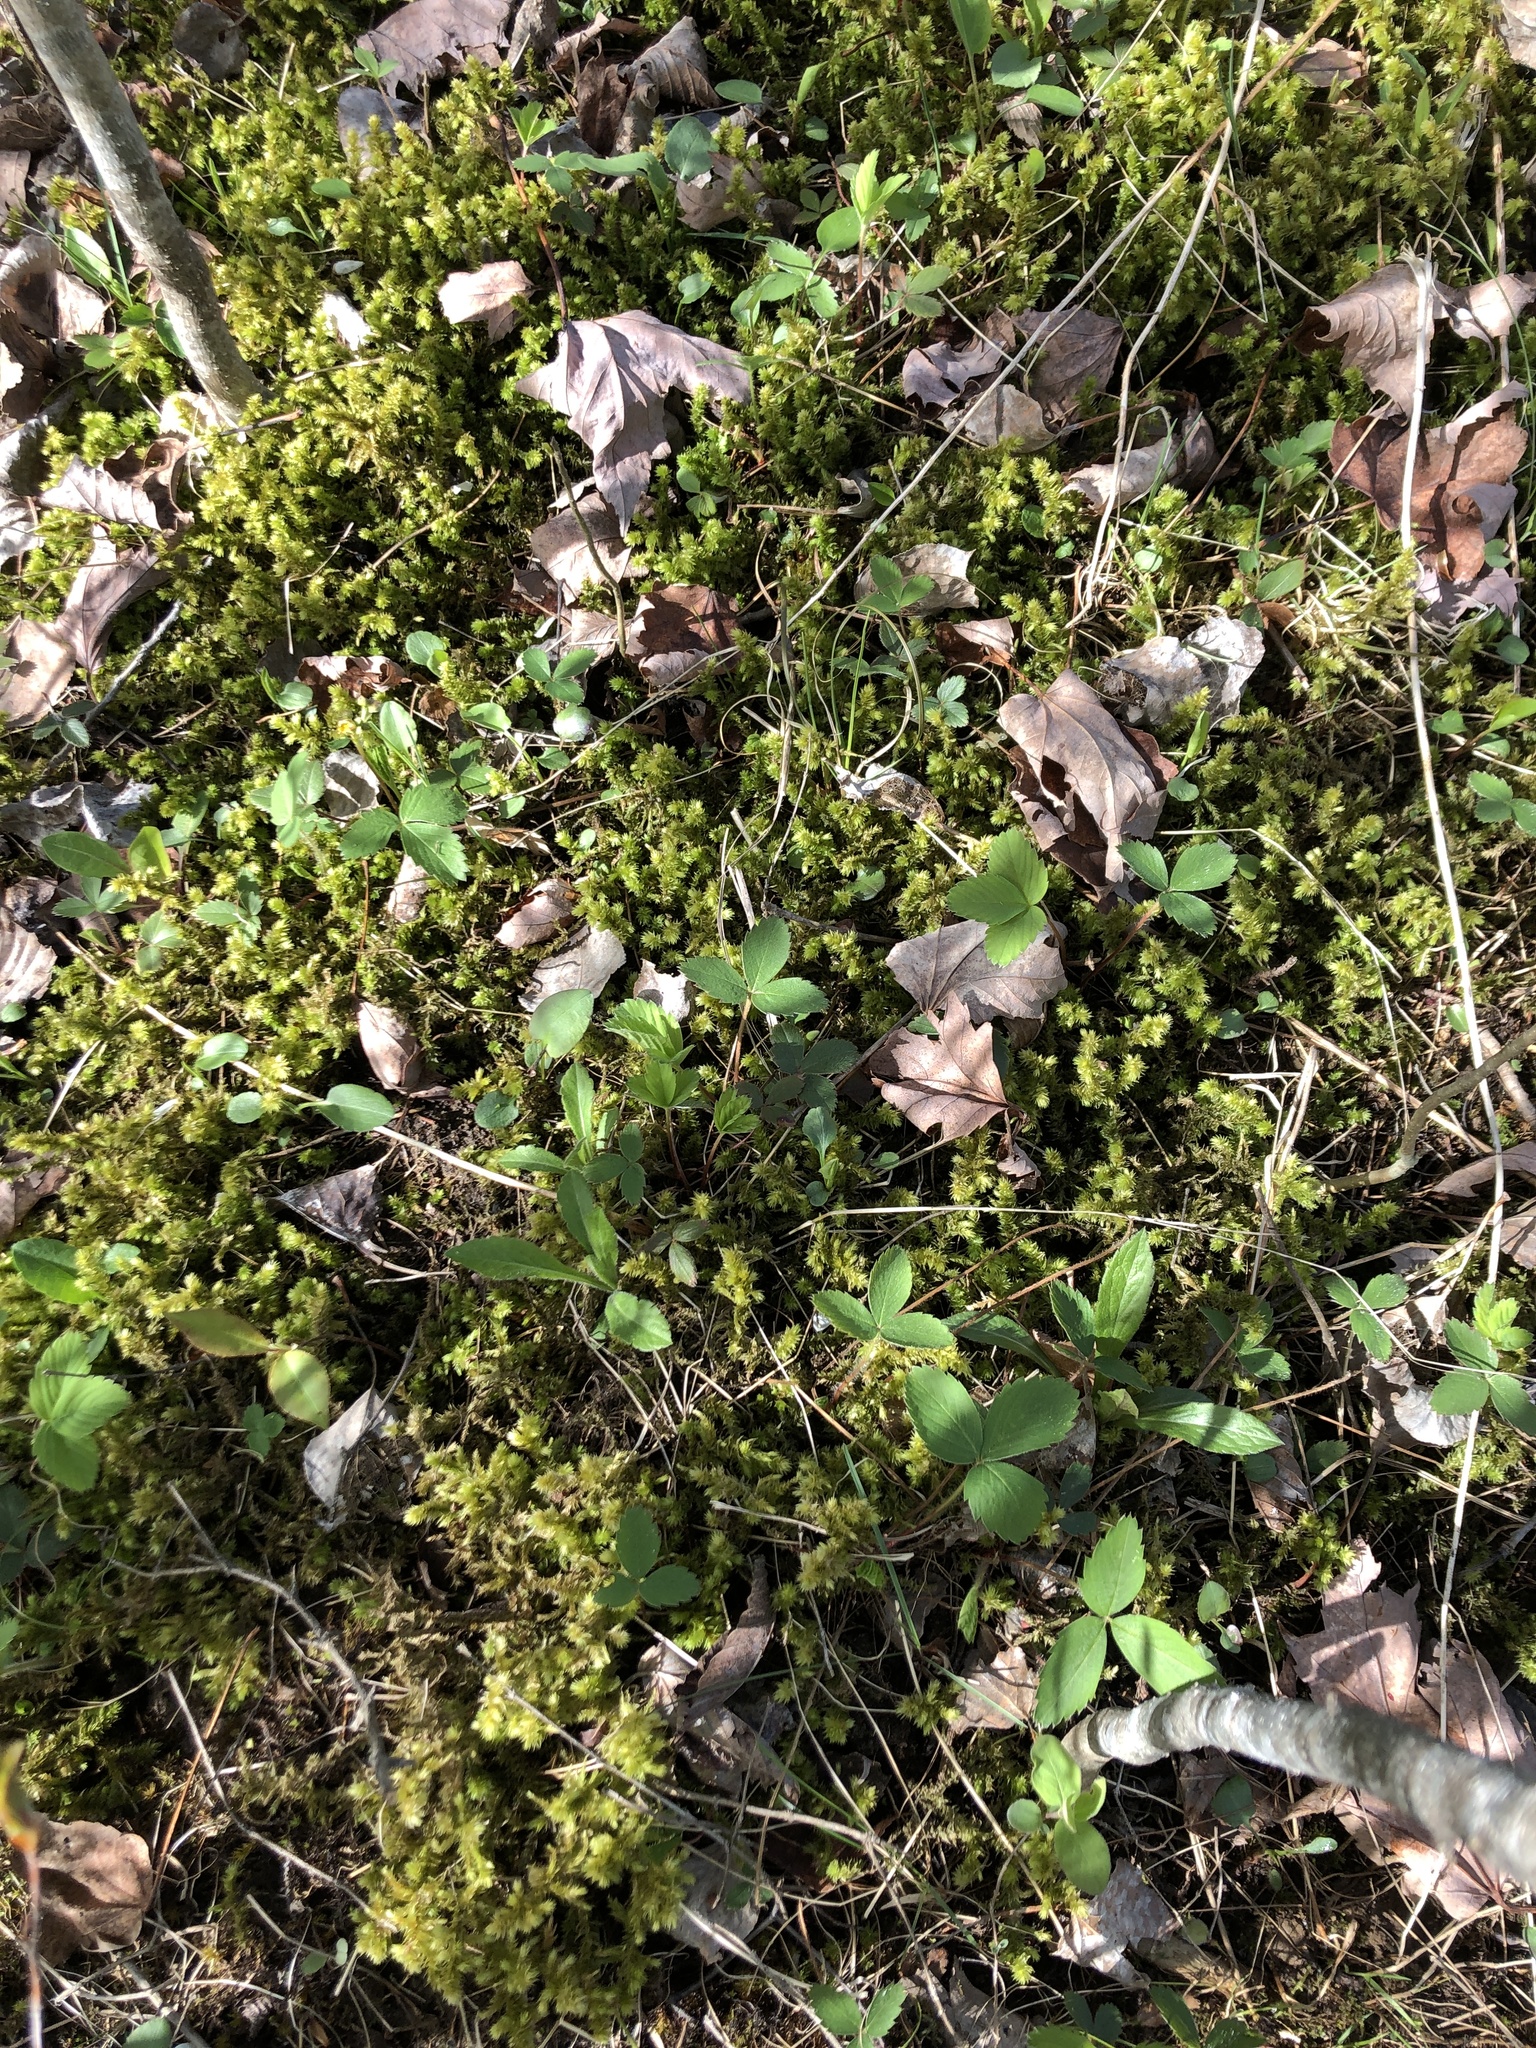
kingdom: Plantae
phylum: Bryophyta
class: Bryopsida
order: Hypnales
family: Hylocomiaceae
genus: Hylocomiadelphus
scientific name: Hylocomiadelphus triquetrus
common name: Rough goose neck moss
